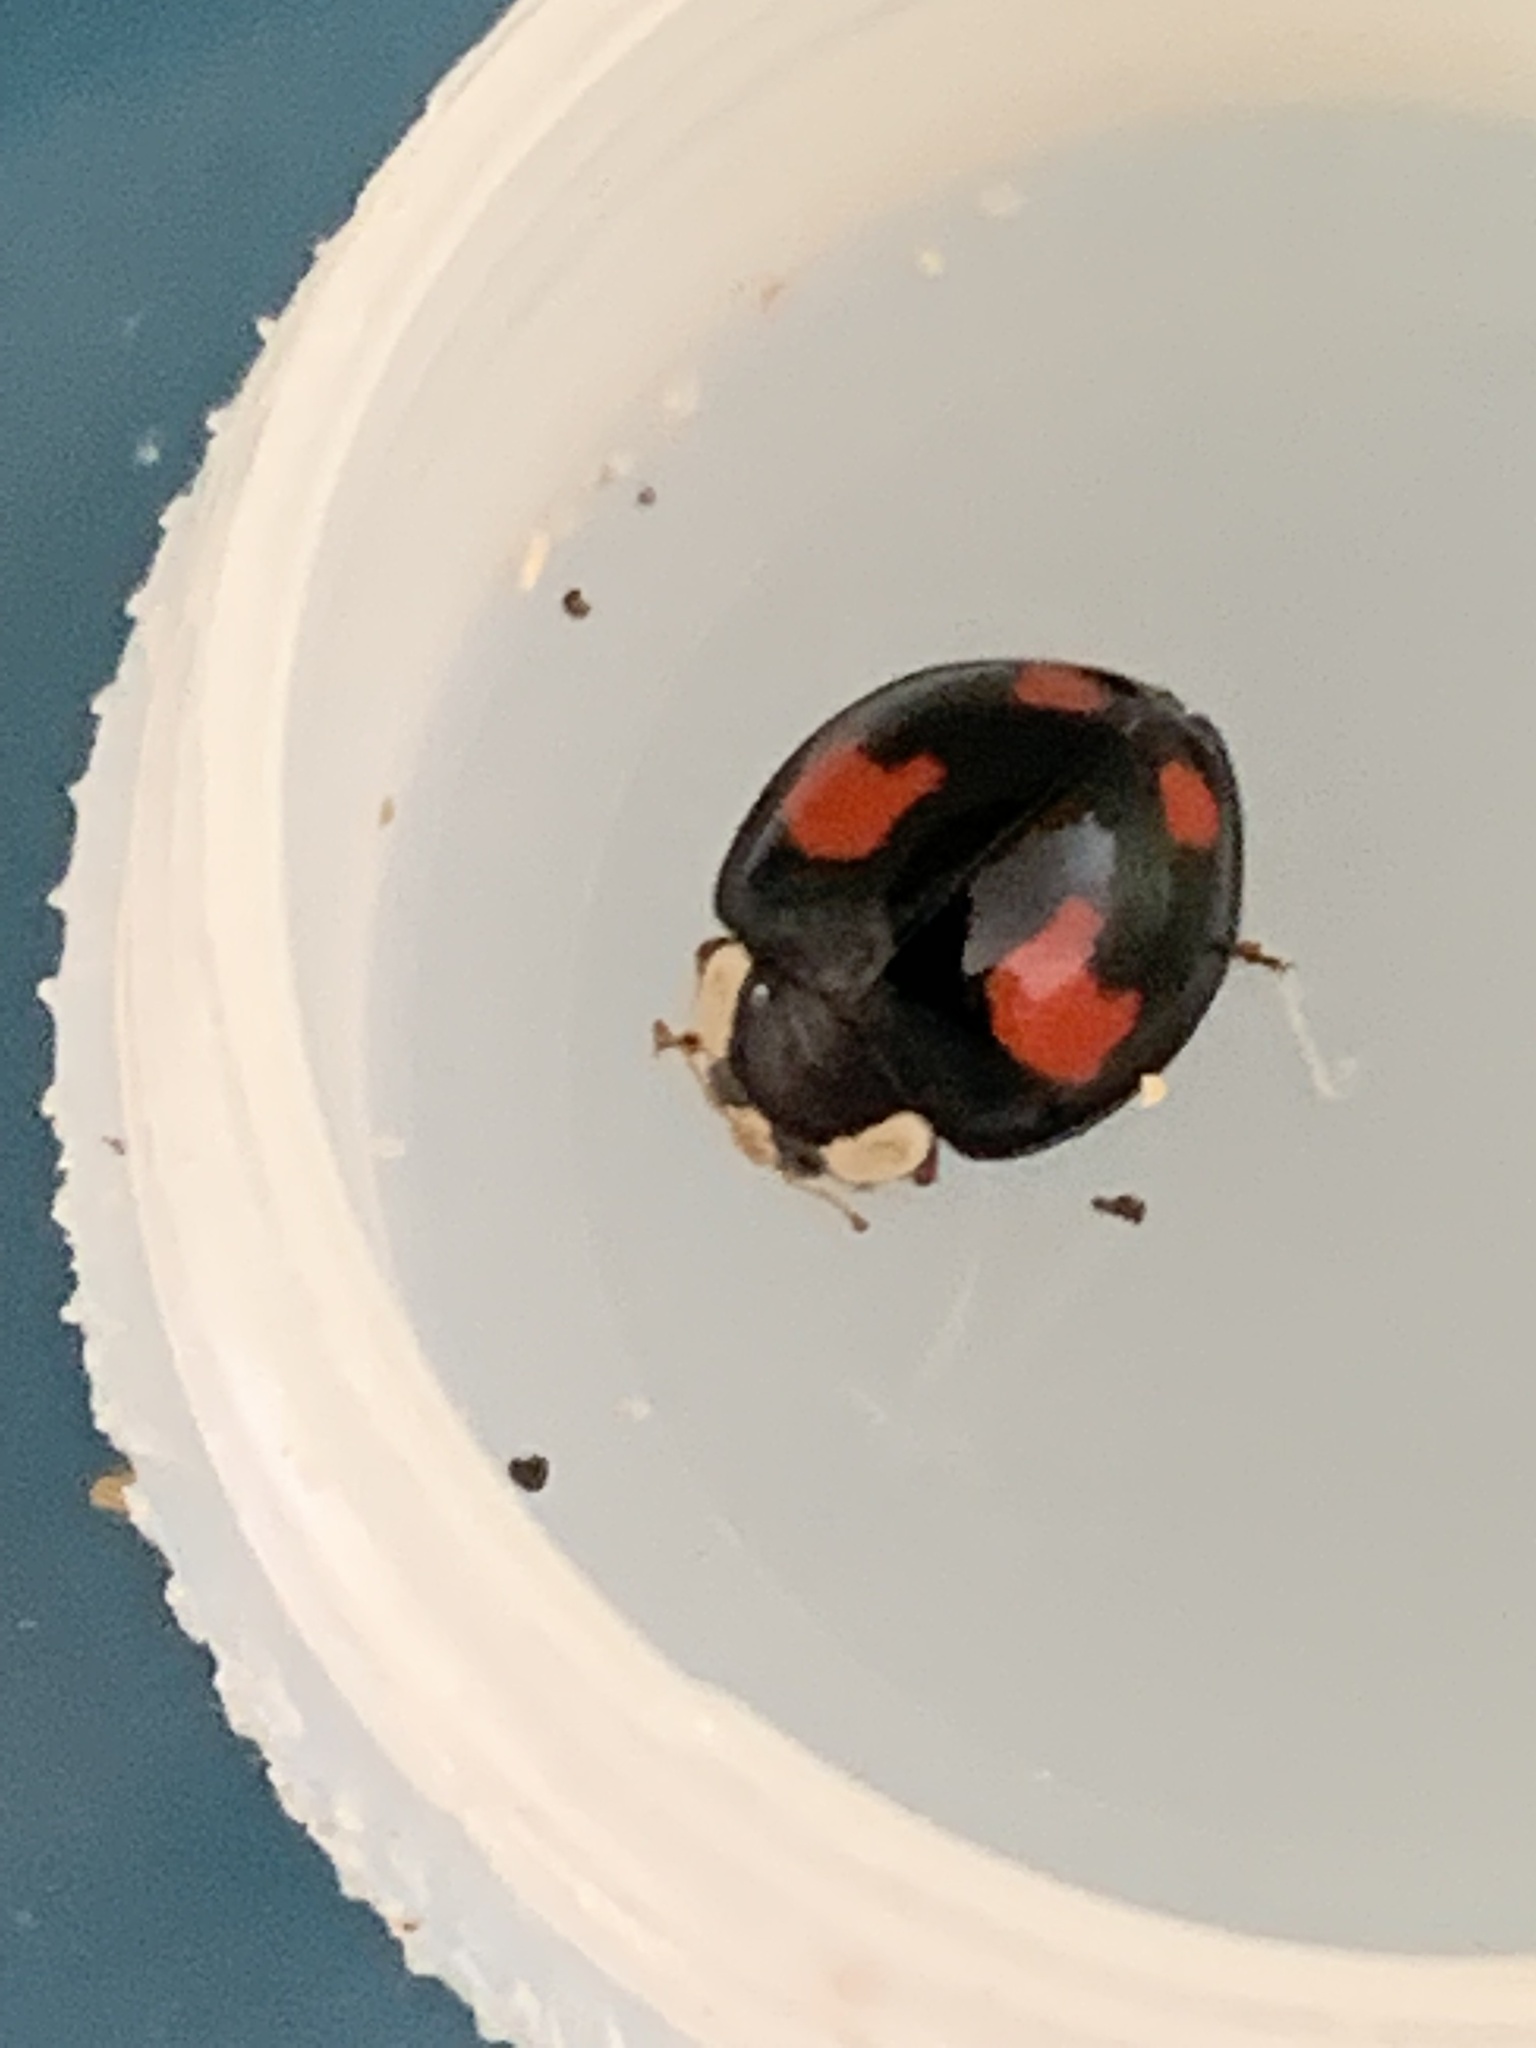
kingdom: Animalia
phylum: Arthropoda
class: Insecta
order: Coleoptera
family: Coccinellidae
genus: Harmonia
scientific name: Harmonia axyridis
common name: Harlequin ladybird
